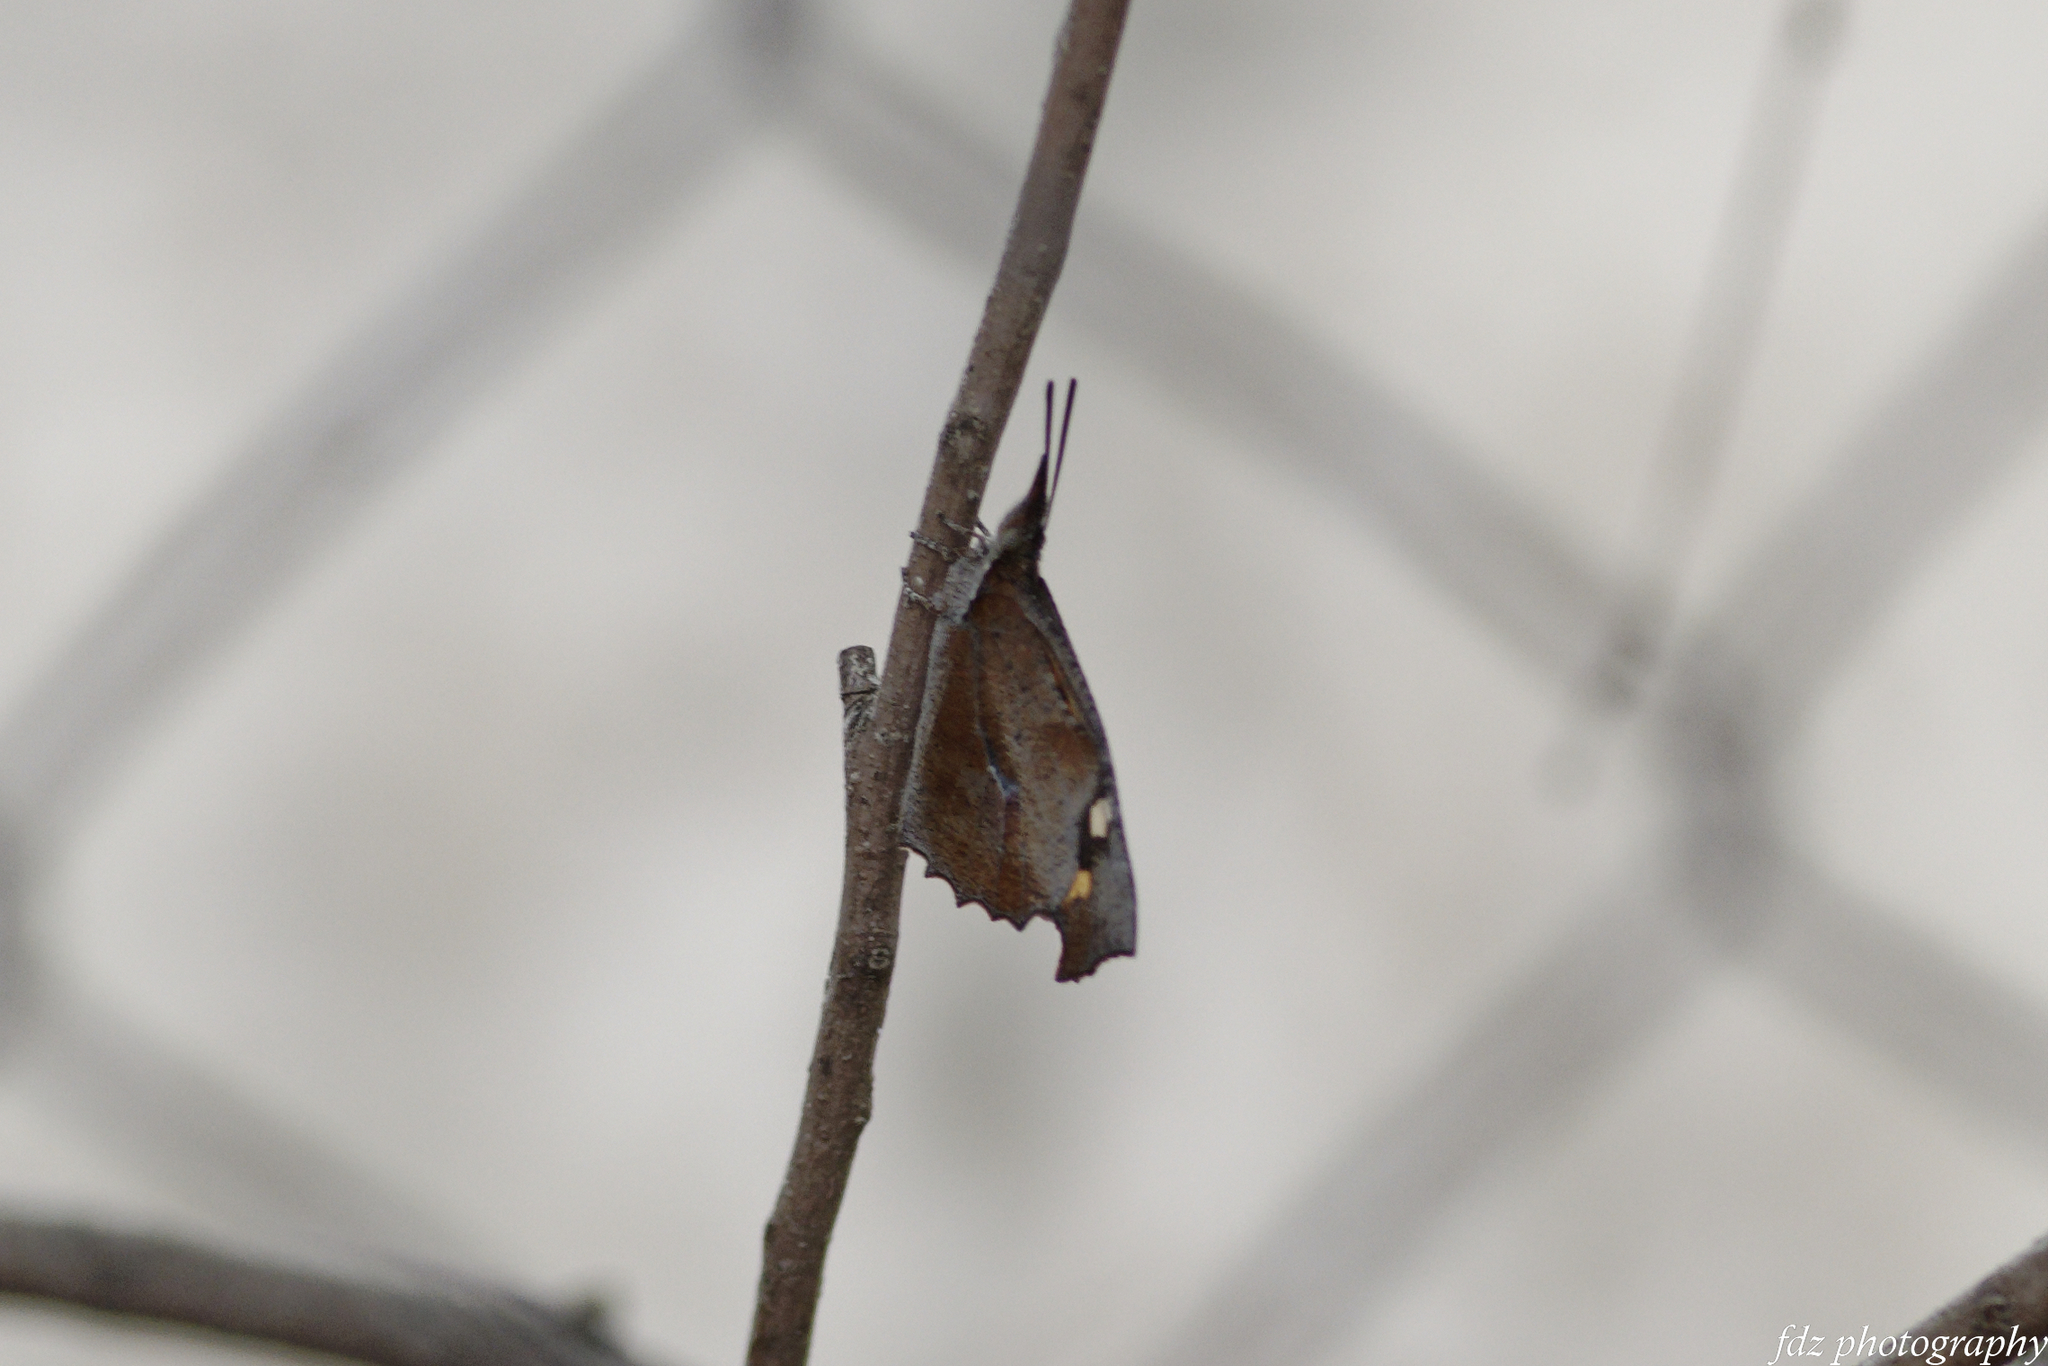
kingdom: Animalia
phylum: Arthropoda
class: Insecta
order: Lepidoptera
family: Nymphalidae
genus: Libythea
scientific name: Libythea celtis
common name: Nettle-tree butterfly
